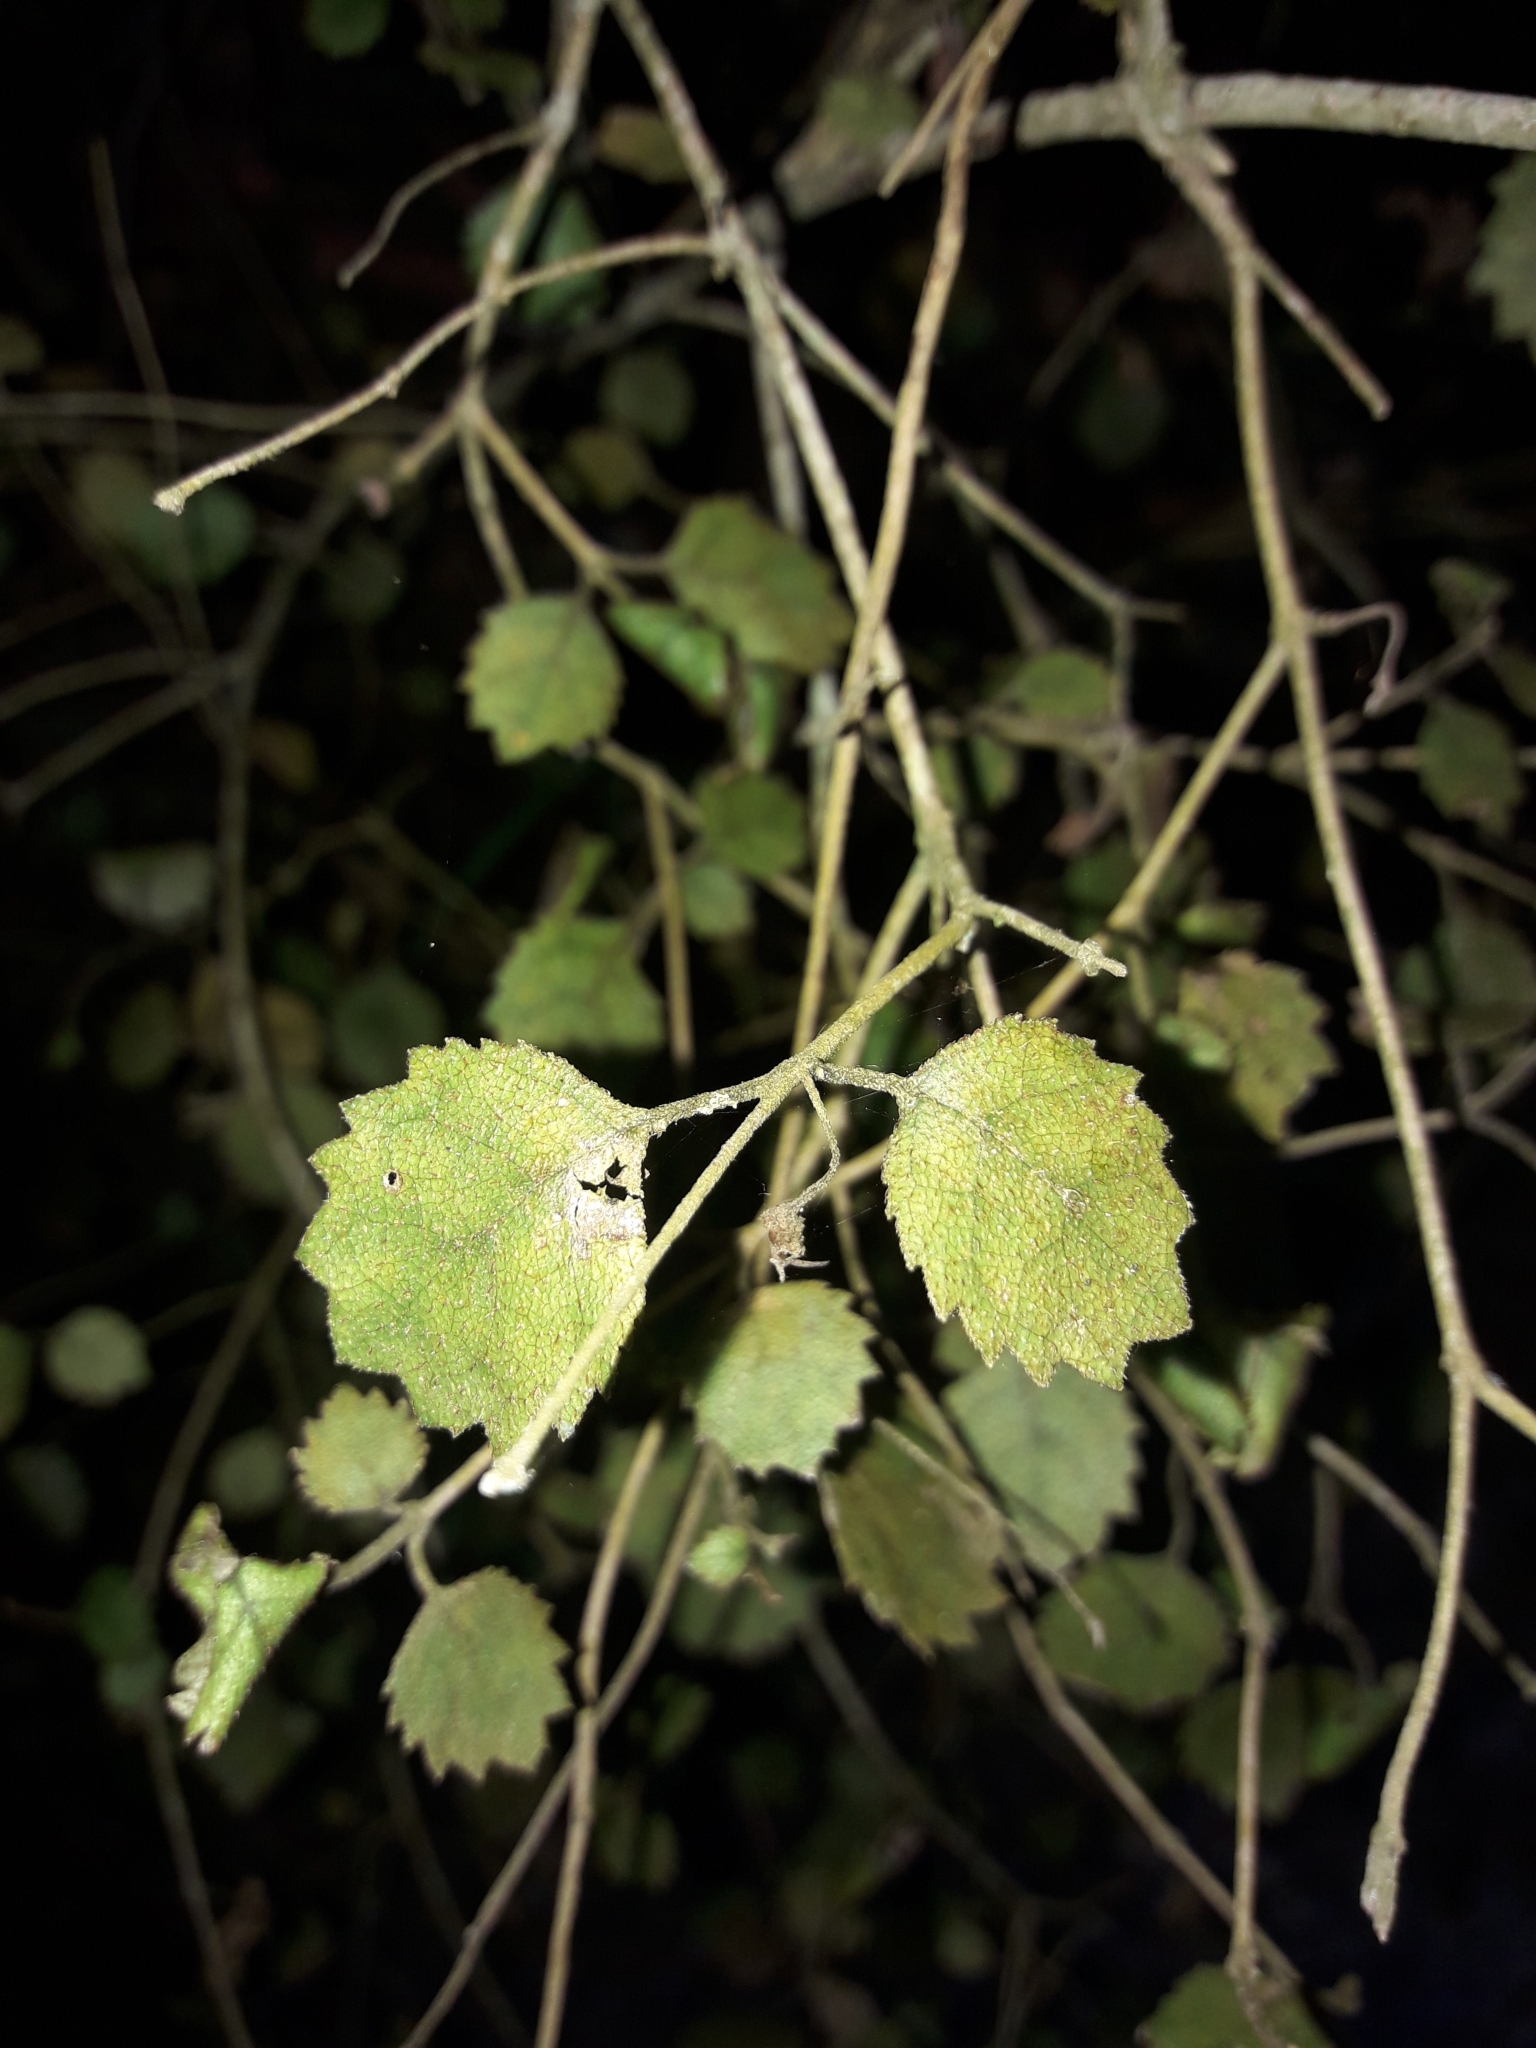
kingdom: Plantae
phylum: Tracheophyta
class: Magnoliopsida
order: Lamiales
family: Gesneriaceae
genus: Rhabdothamnus
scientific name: Rhabdothamnus solandri
